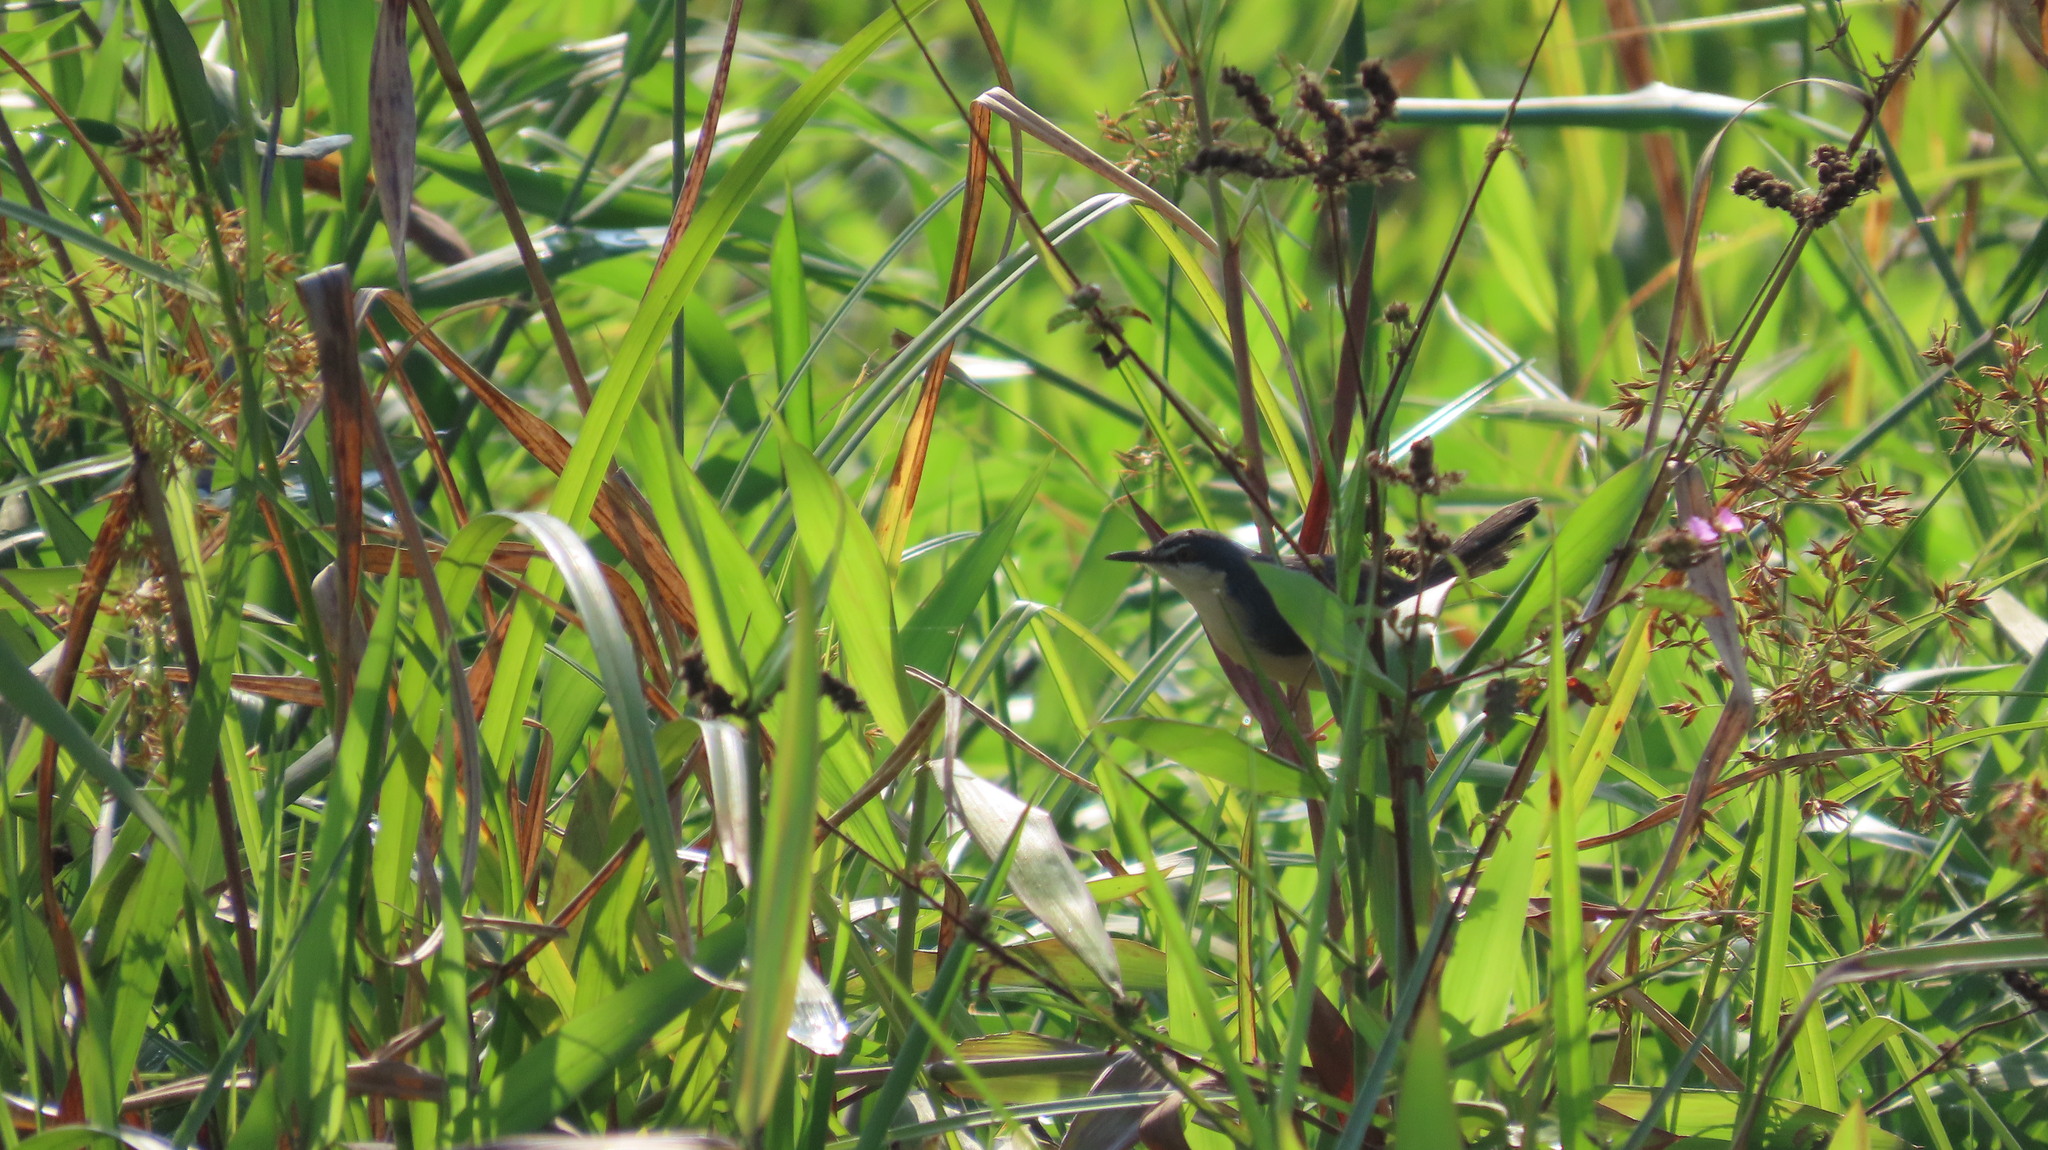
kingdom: Animalia
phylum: Chordata
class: Aves
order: Passeriformes
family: Cisticolidae
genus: Prinia
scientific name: Prinia socialis
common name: Ashy prinia
